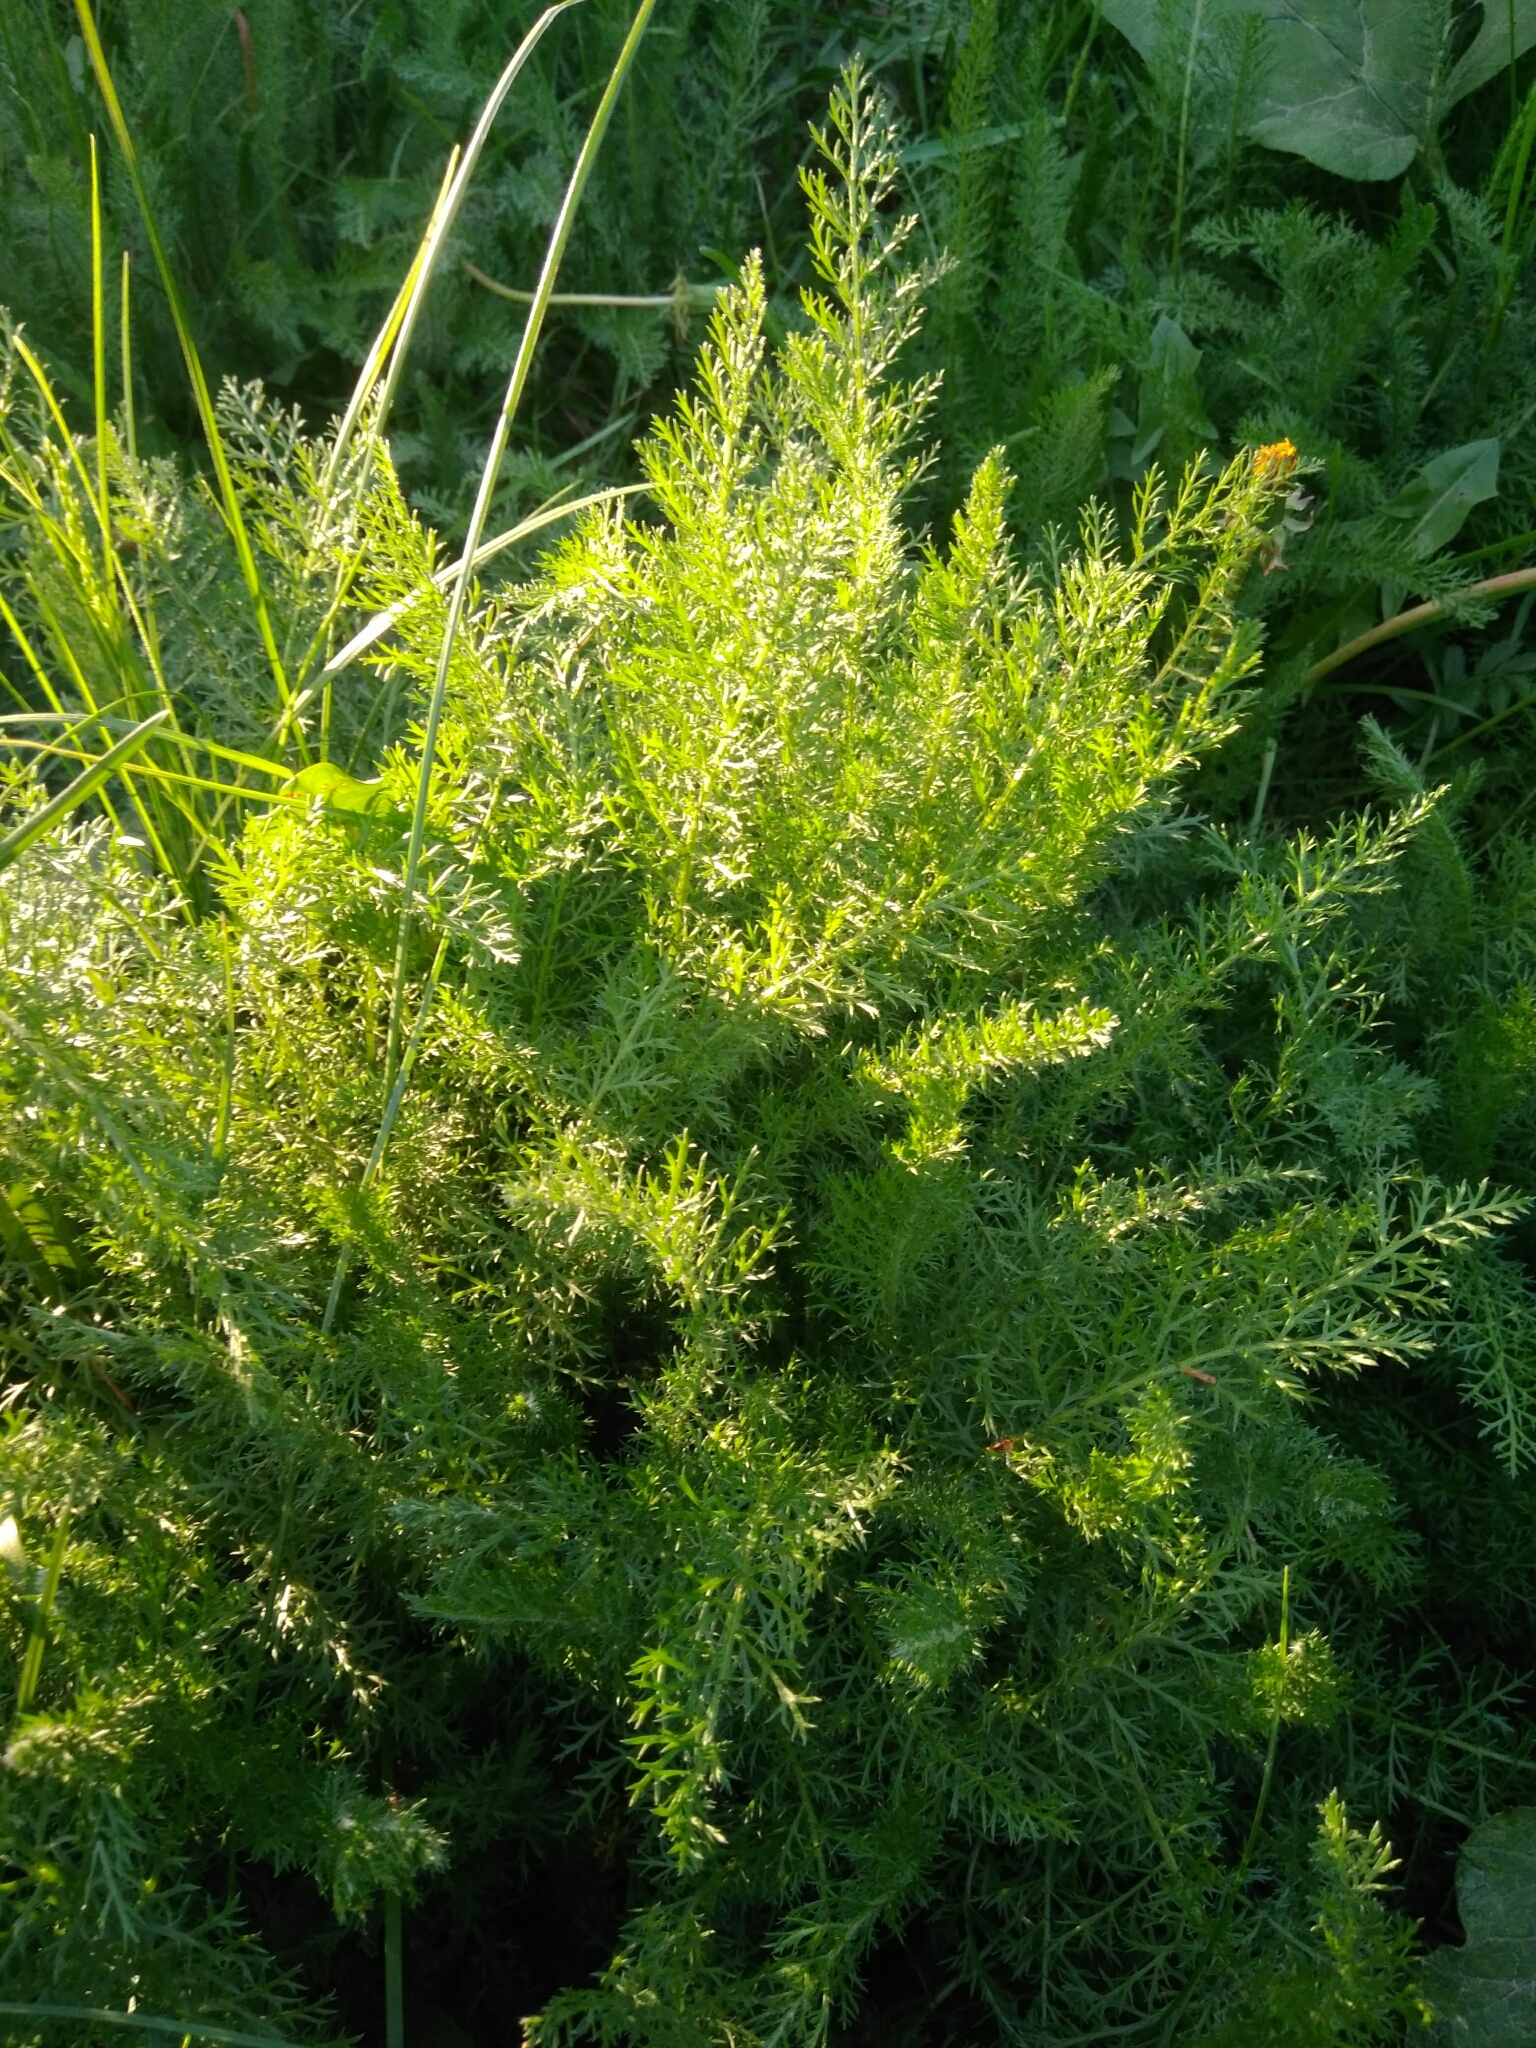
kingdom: Plantae
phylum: Tracheophyta
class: Magnoliopsida
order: Asterales
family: Asteraceae
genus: Achillea
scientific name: Achillea millefolium
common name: Yarrow
